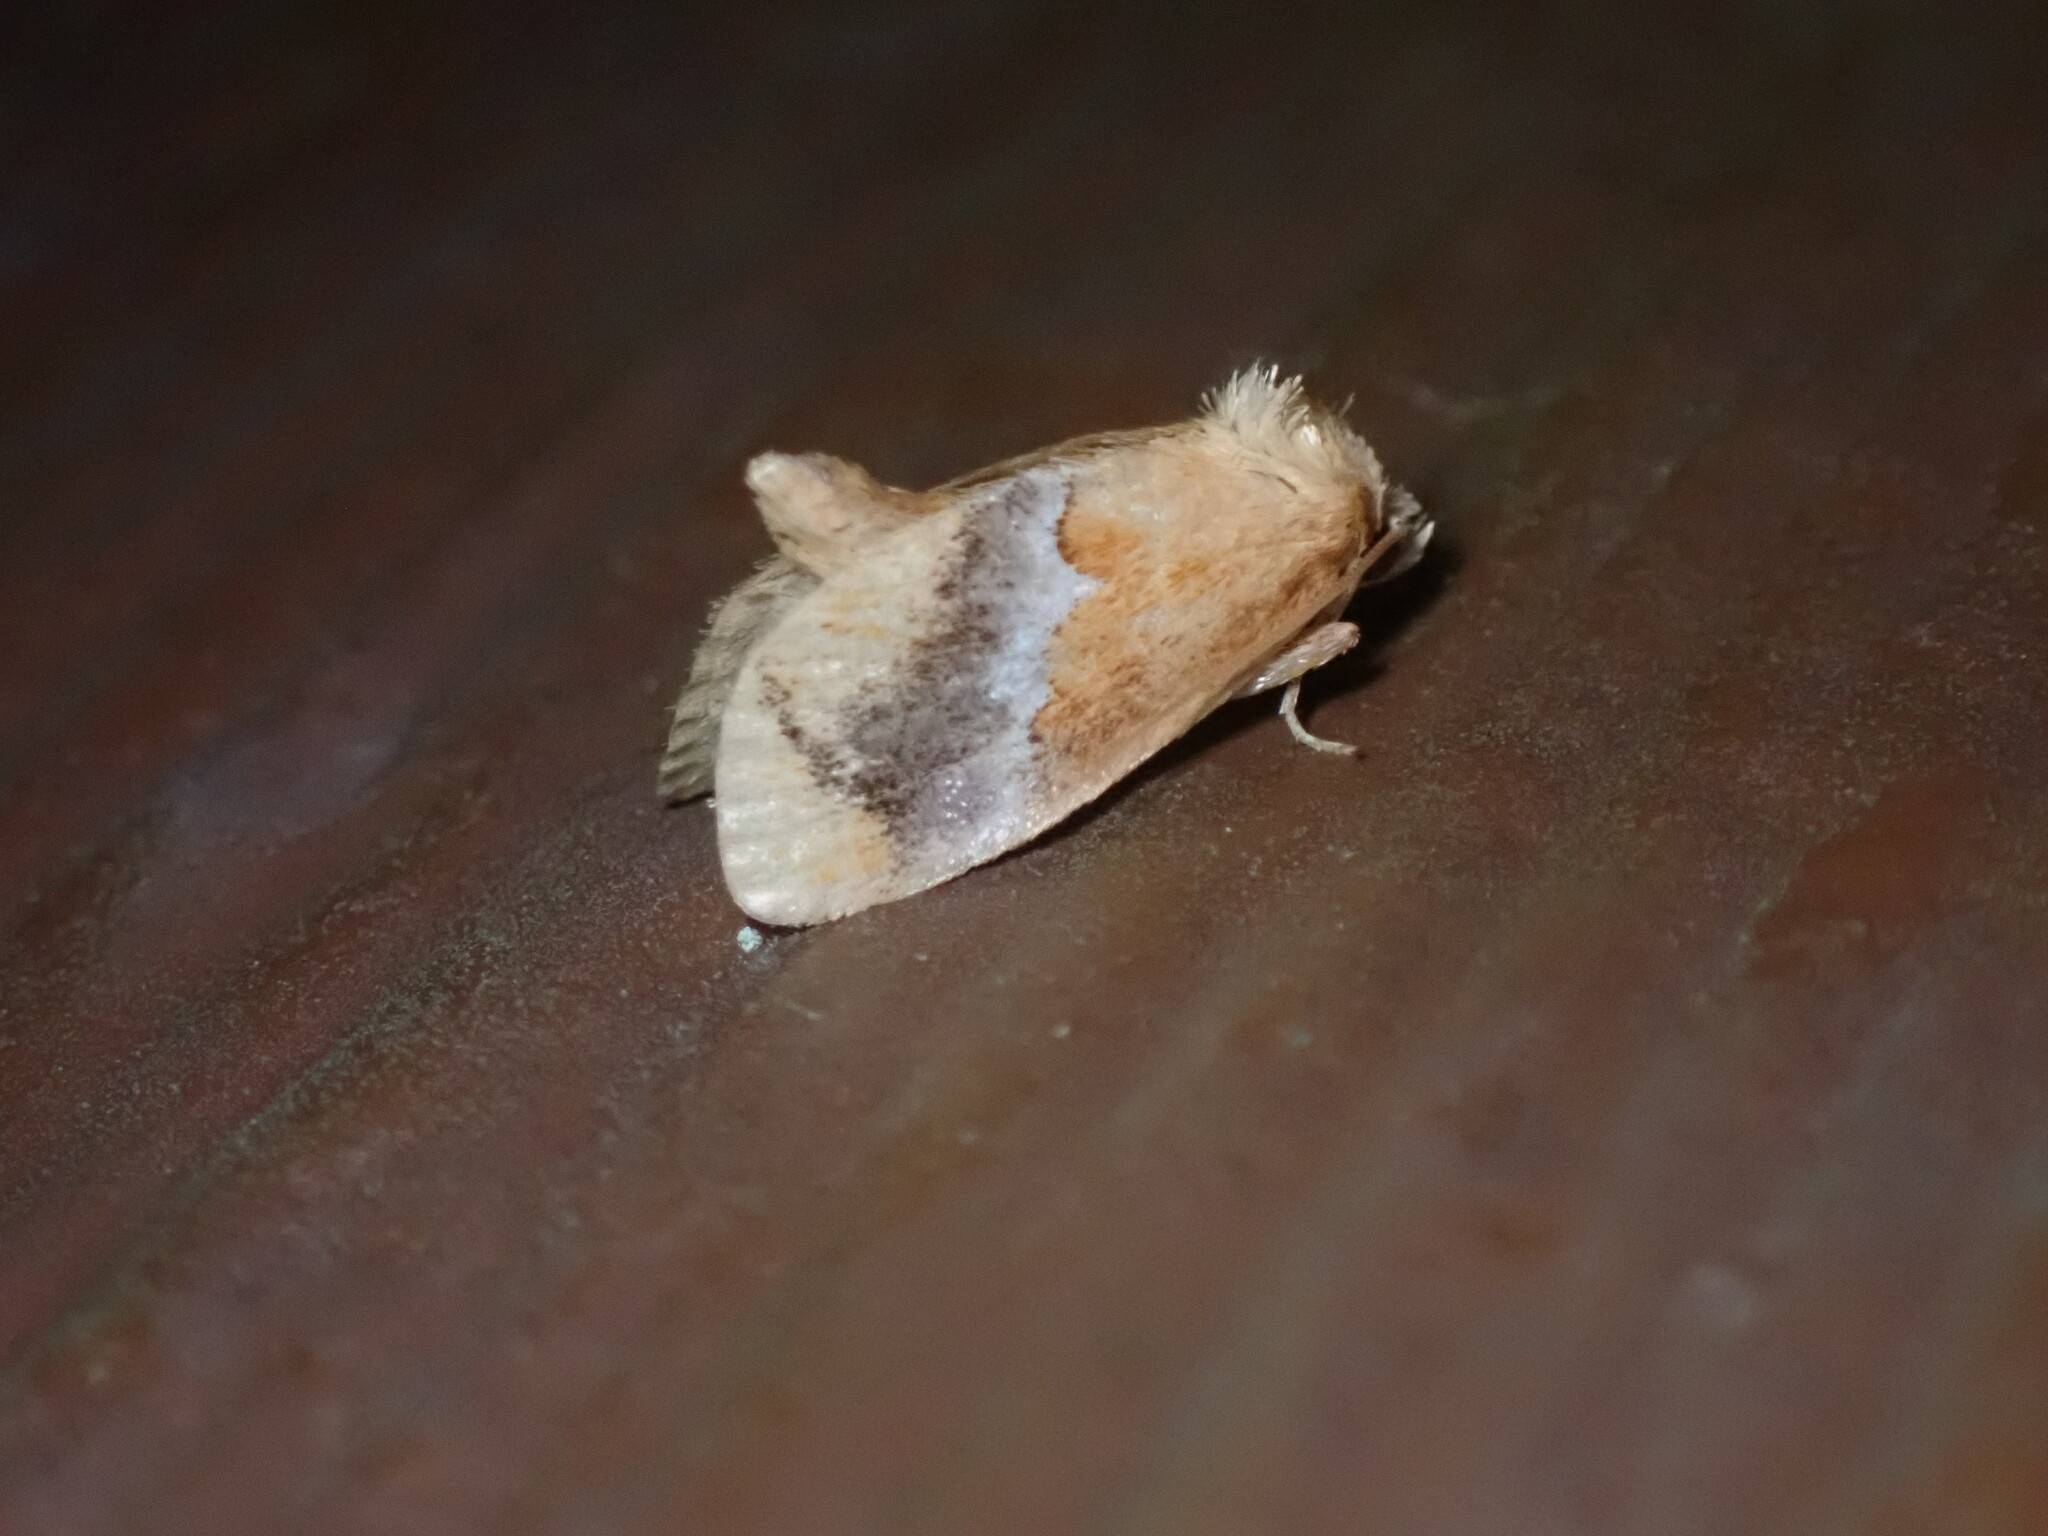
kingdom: Animalia
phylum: Arthropoda
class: Insecta
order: Lepidoptera
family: Limacodidae
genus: Lithacodes
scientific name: Lithacodes fasciola
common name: Yellow-shouldered slug moth
